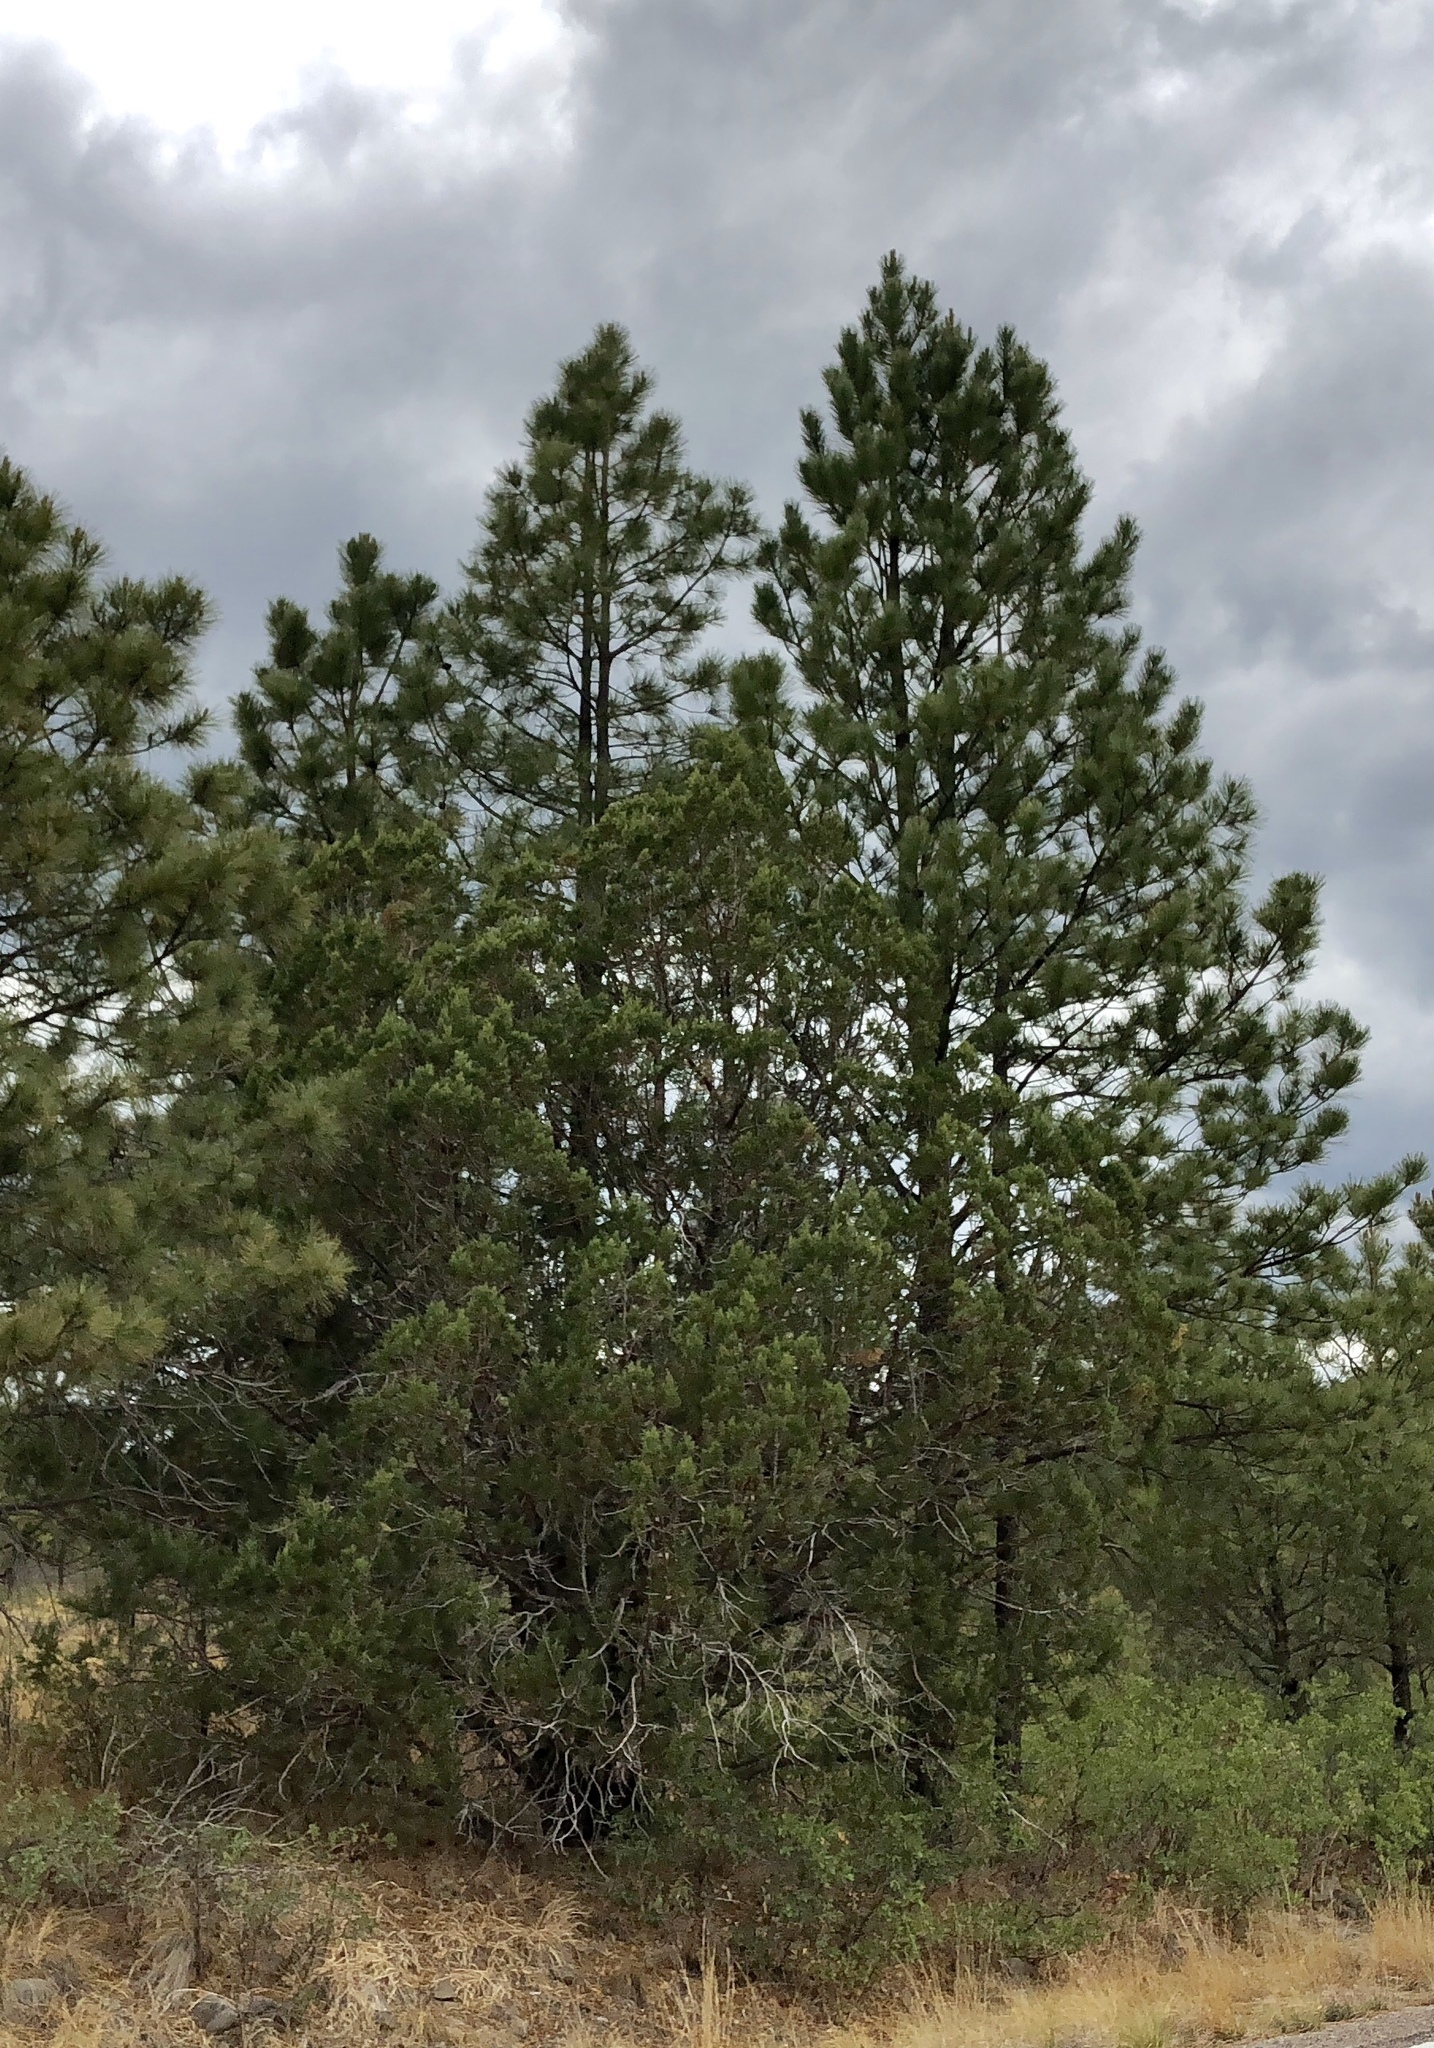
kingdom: Plantae
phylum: Tracheophyta
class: Pinopsida
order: Pinales
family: Pinaceae
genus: Pinus
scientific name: Pinus ponderosa
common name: Western yellow-pine
